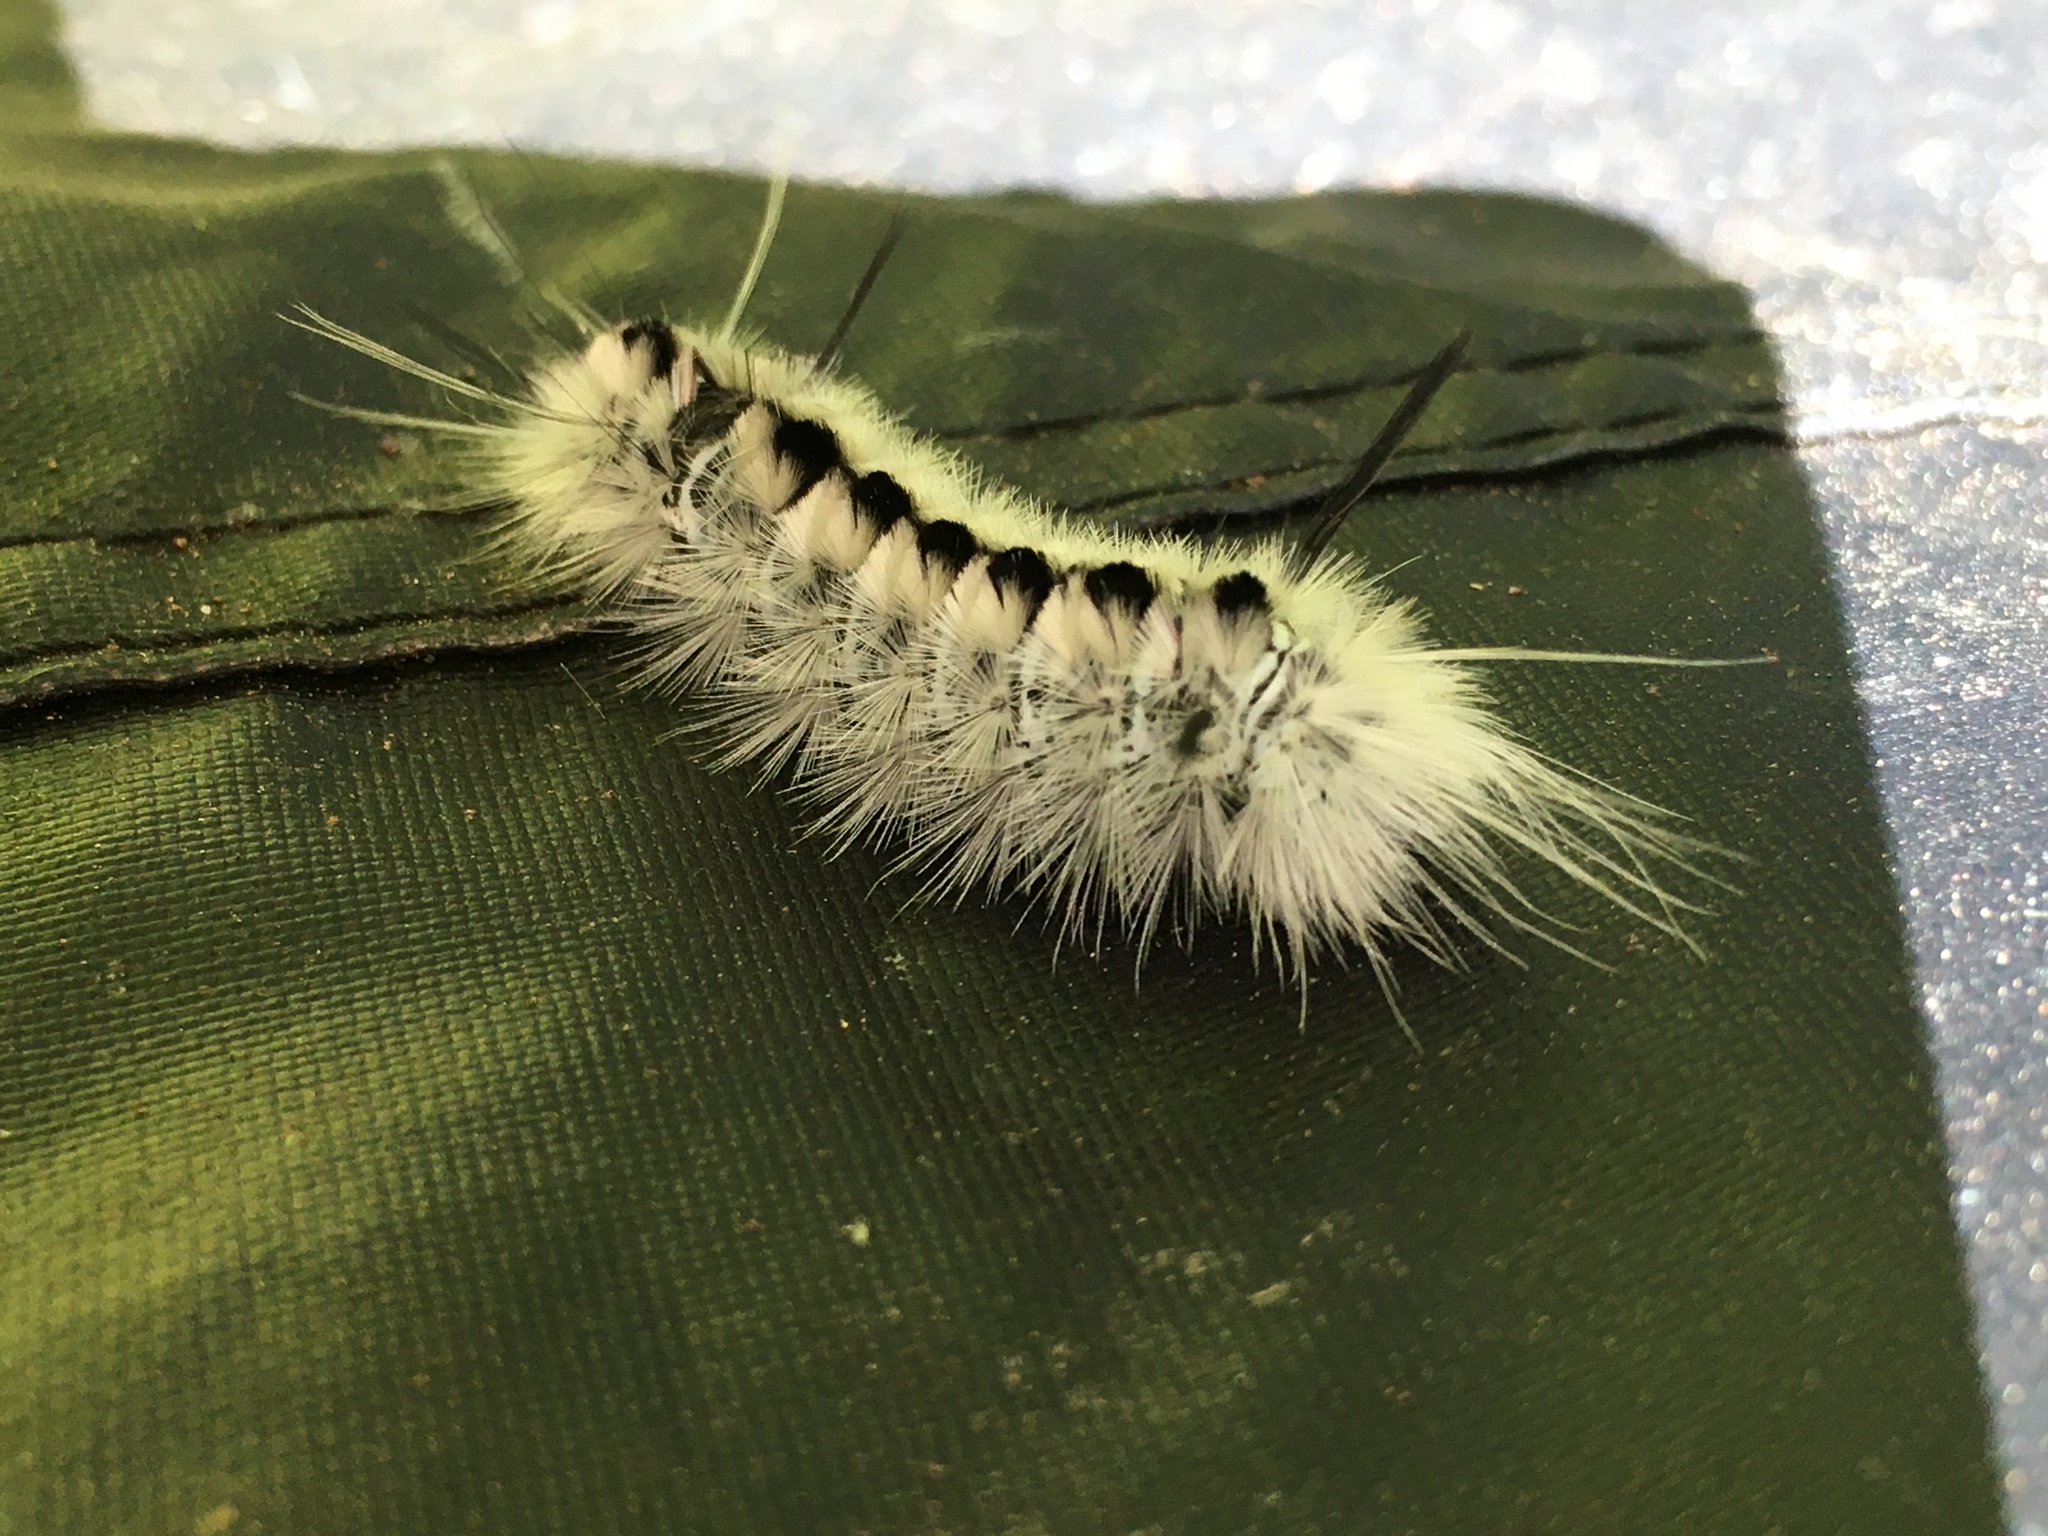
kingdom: Animalia
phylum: Arthropoda
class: Insecta
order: Lepidoptera
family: Erebidae
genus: Lophocampa
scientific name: Lophocampa caryae
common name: Hickory tussock moth
